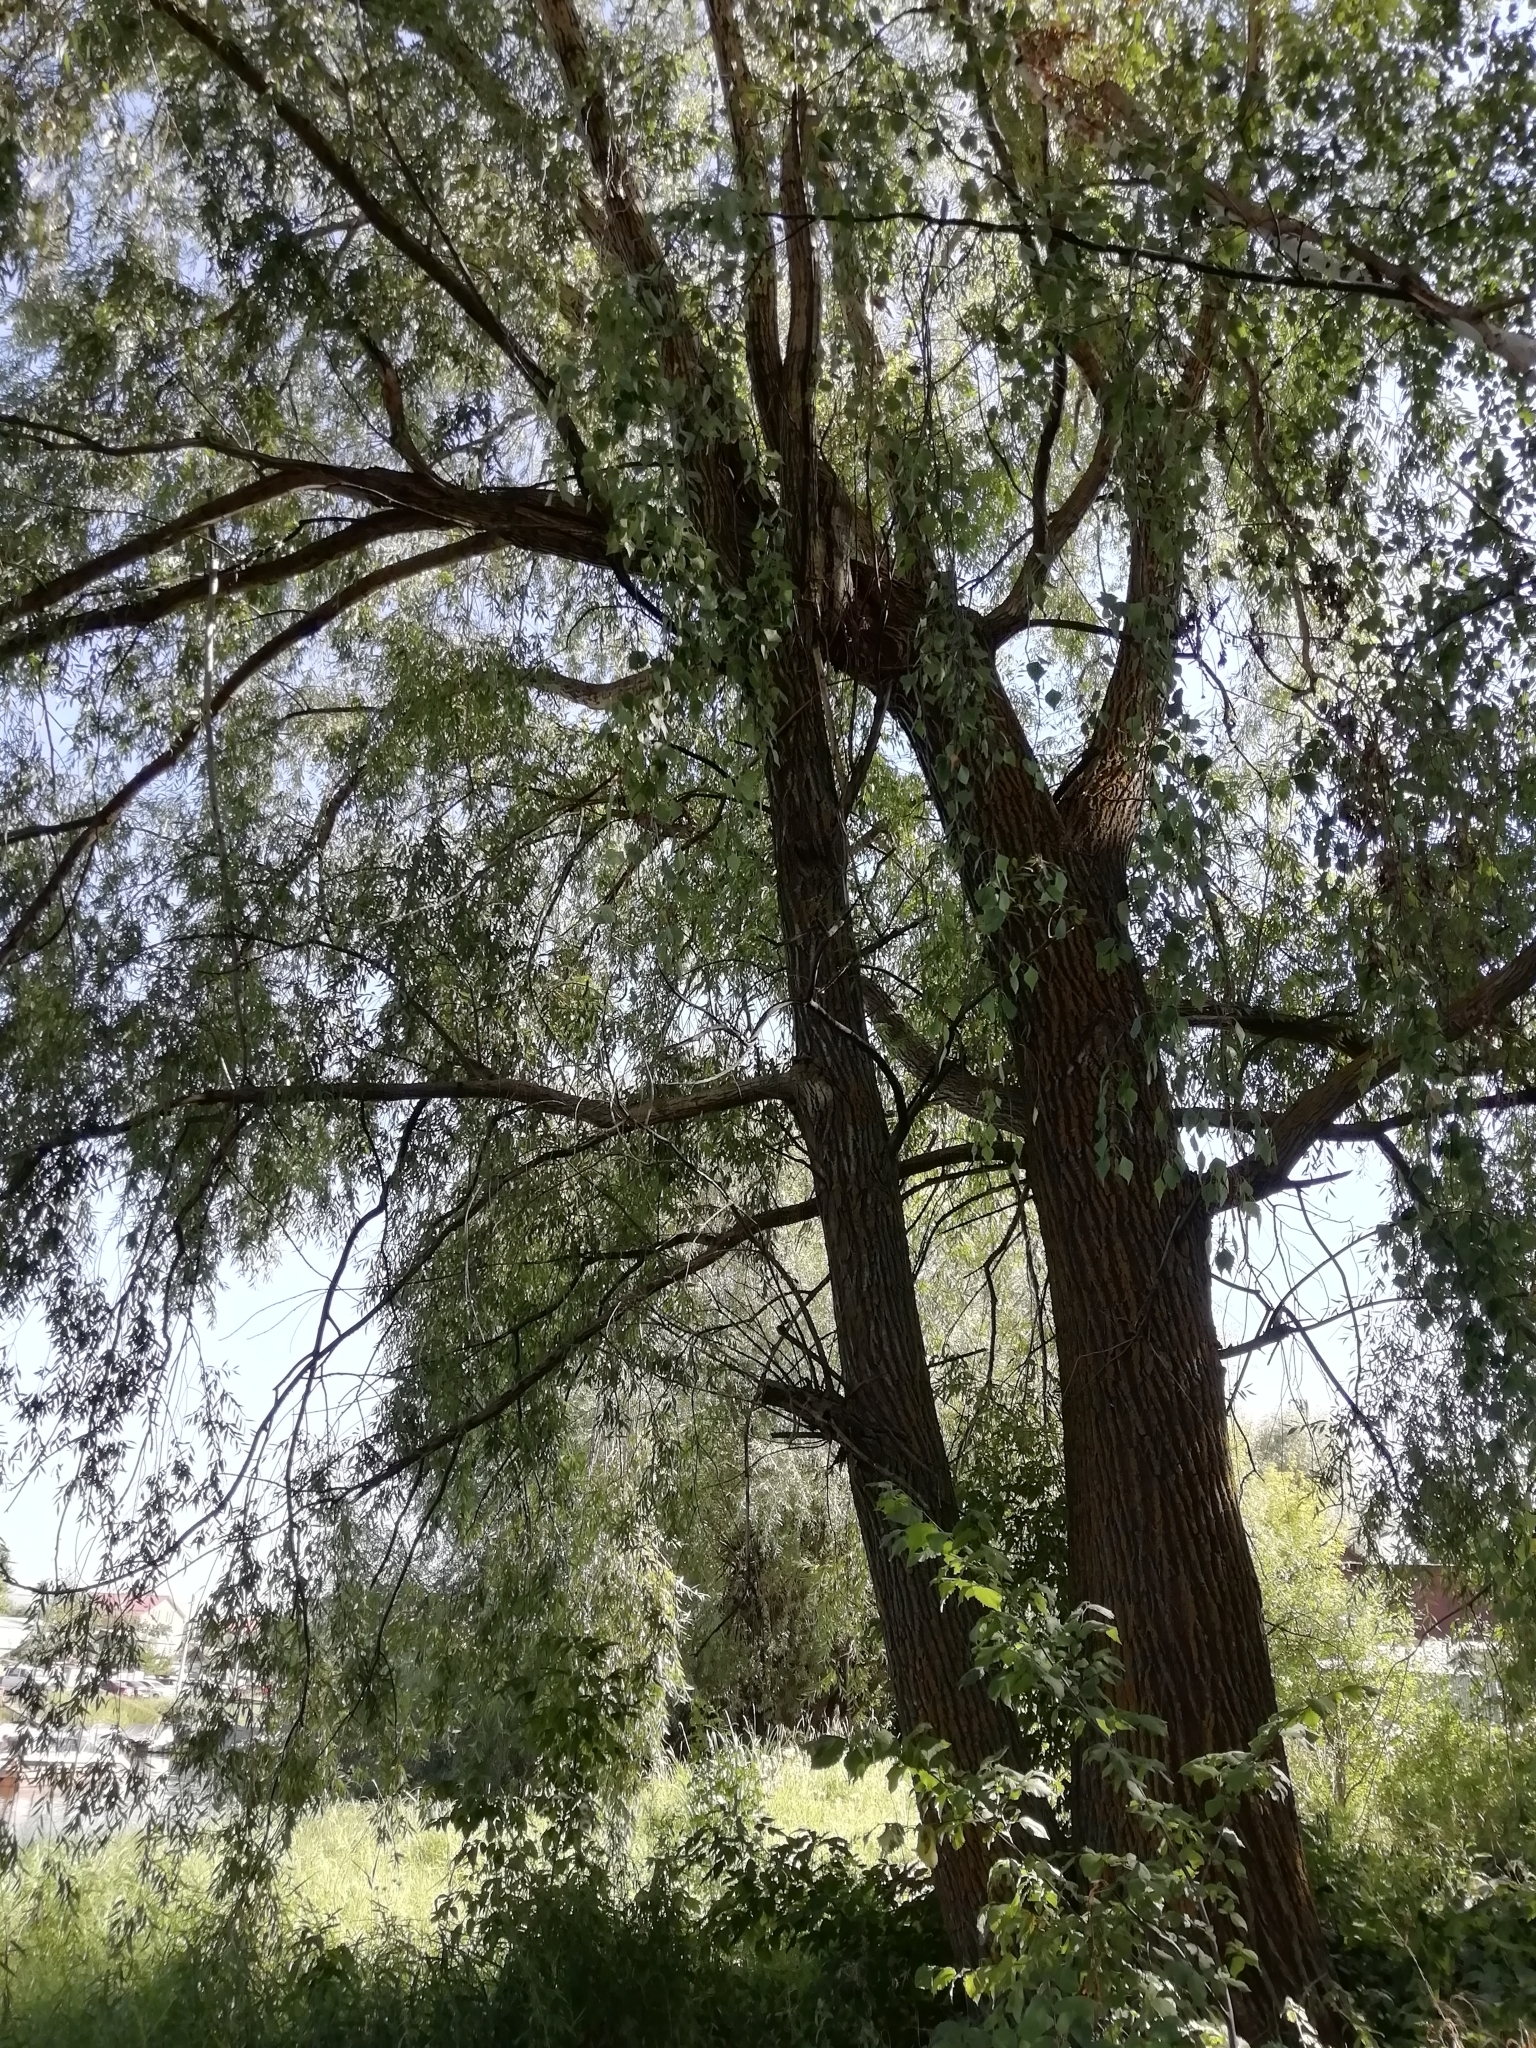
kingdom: Plantae
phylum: Tracheophyta
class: Magnoliopsida
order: Malpighiales
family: Salicaceae
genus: Salix
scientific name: Salix alba
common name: White willow
